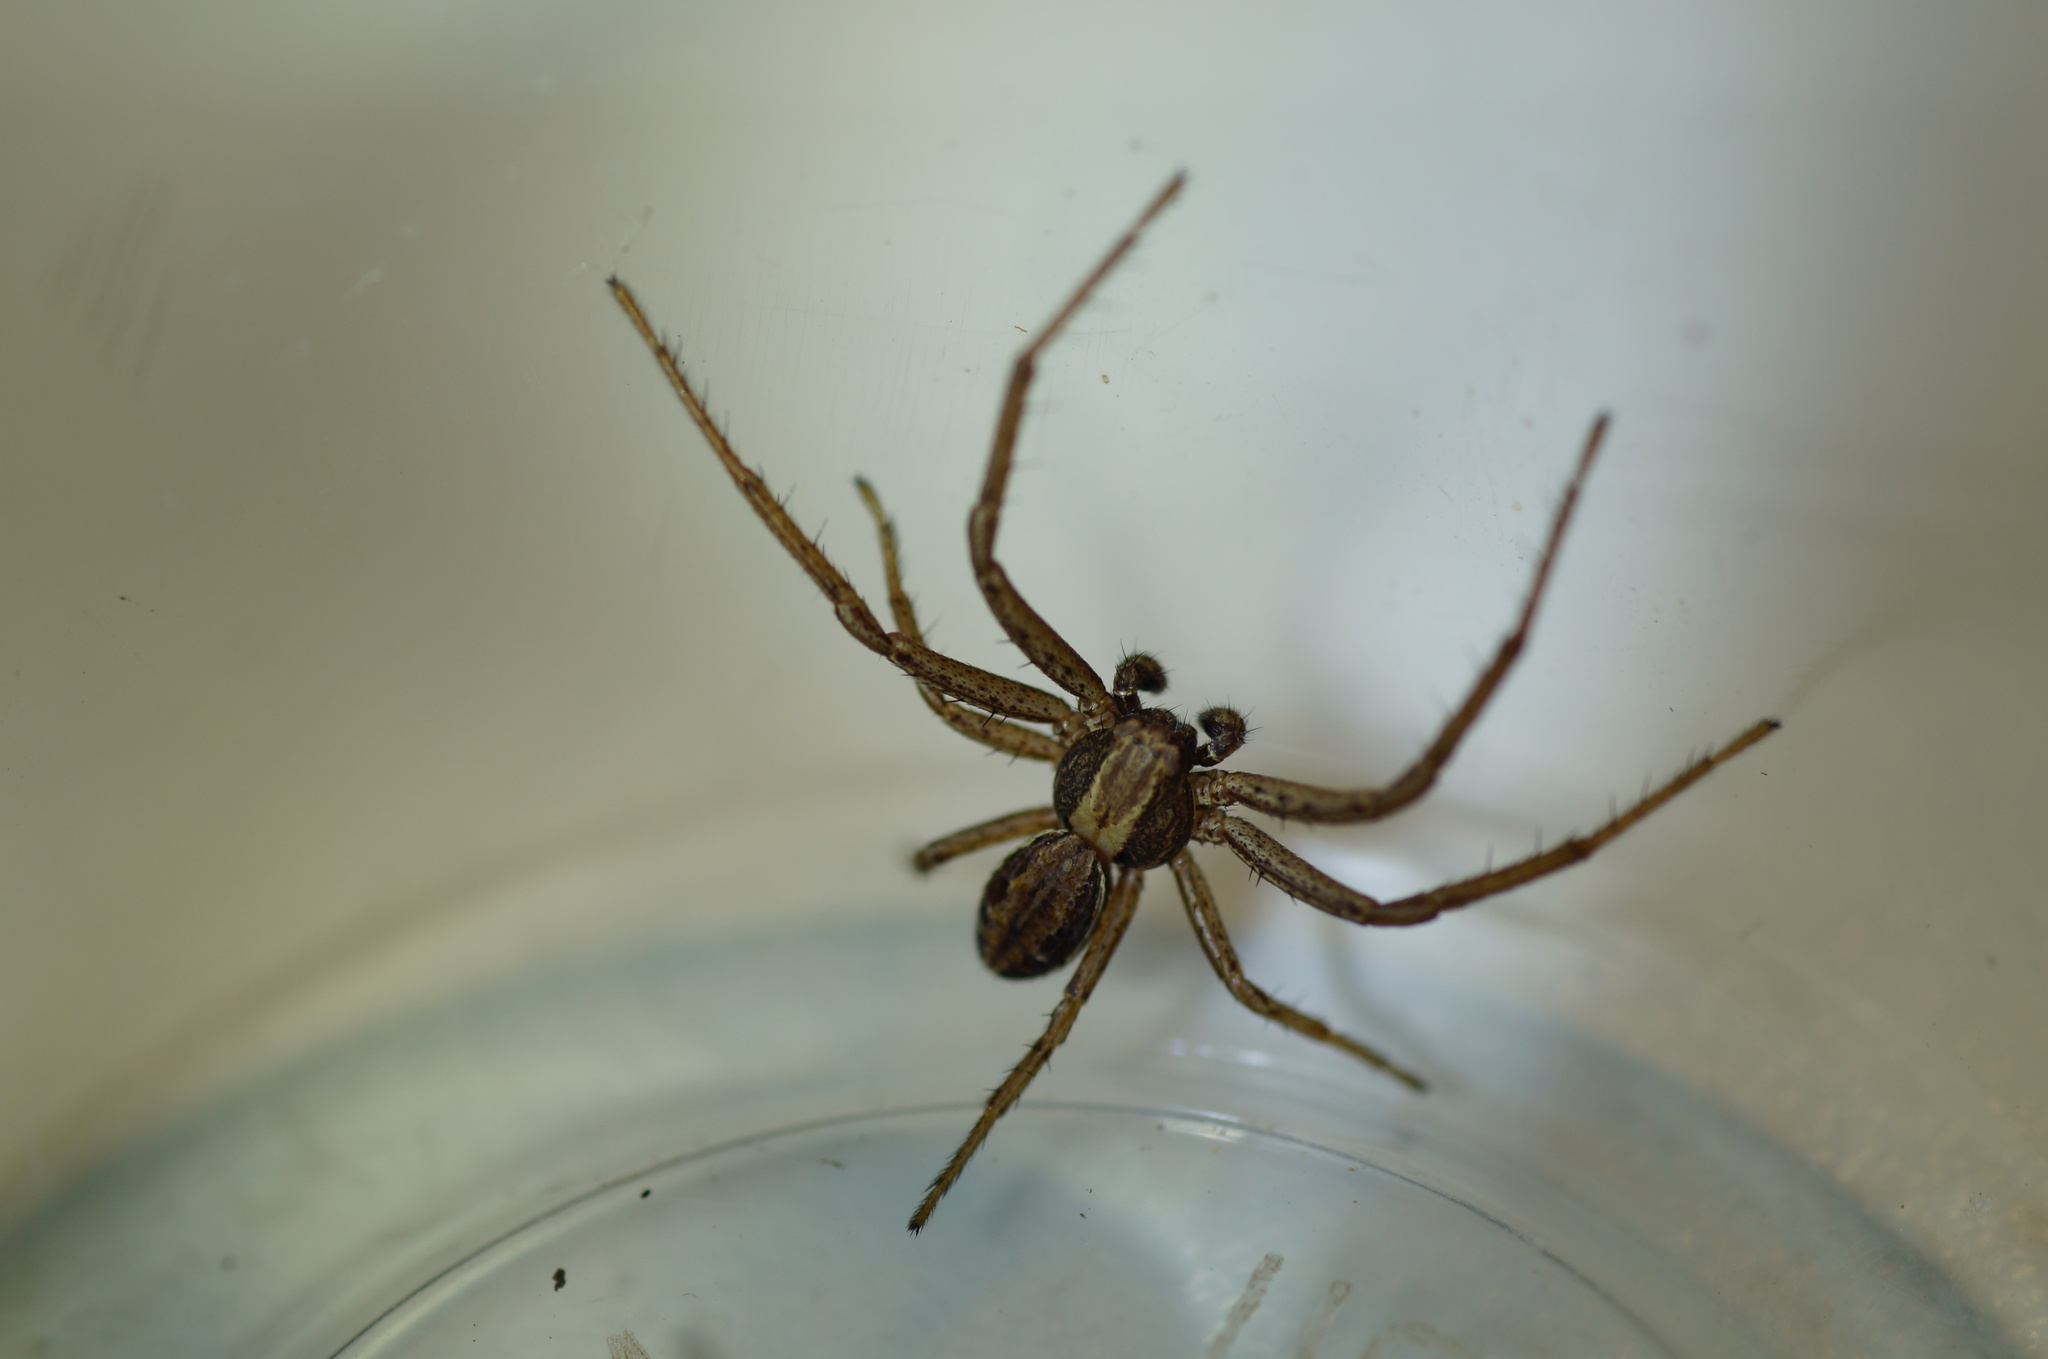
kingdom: Animalia
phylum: Arthropoda
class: Arachnida
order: Araneae
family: Thomisidae
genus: Spiracme
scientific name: Spiracme striatipes
